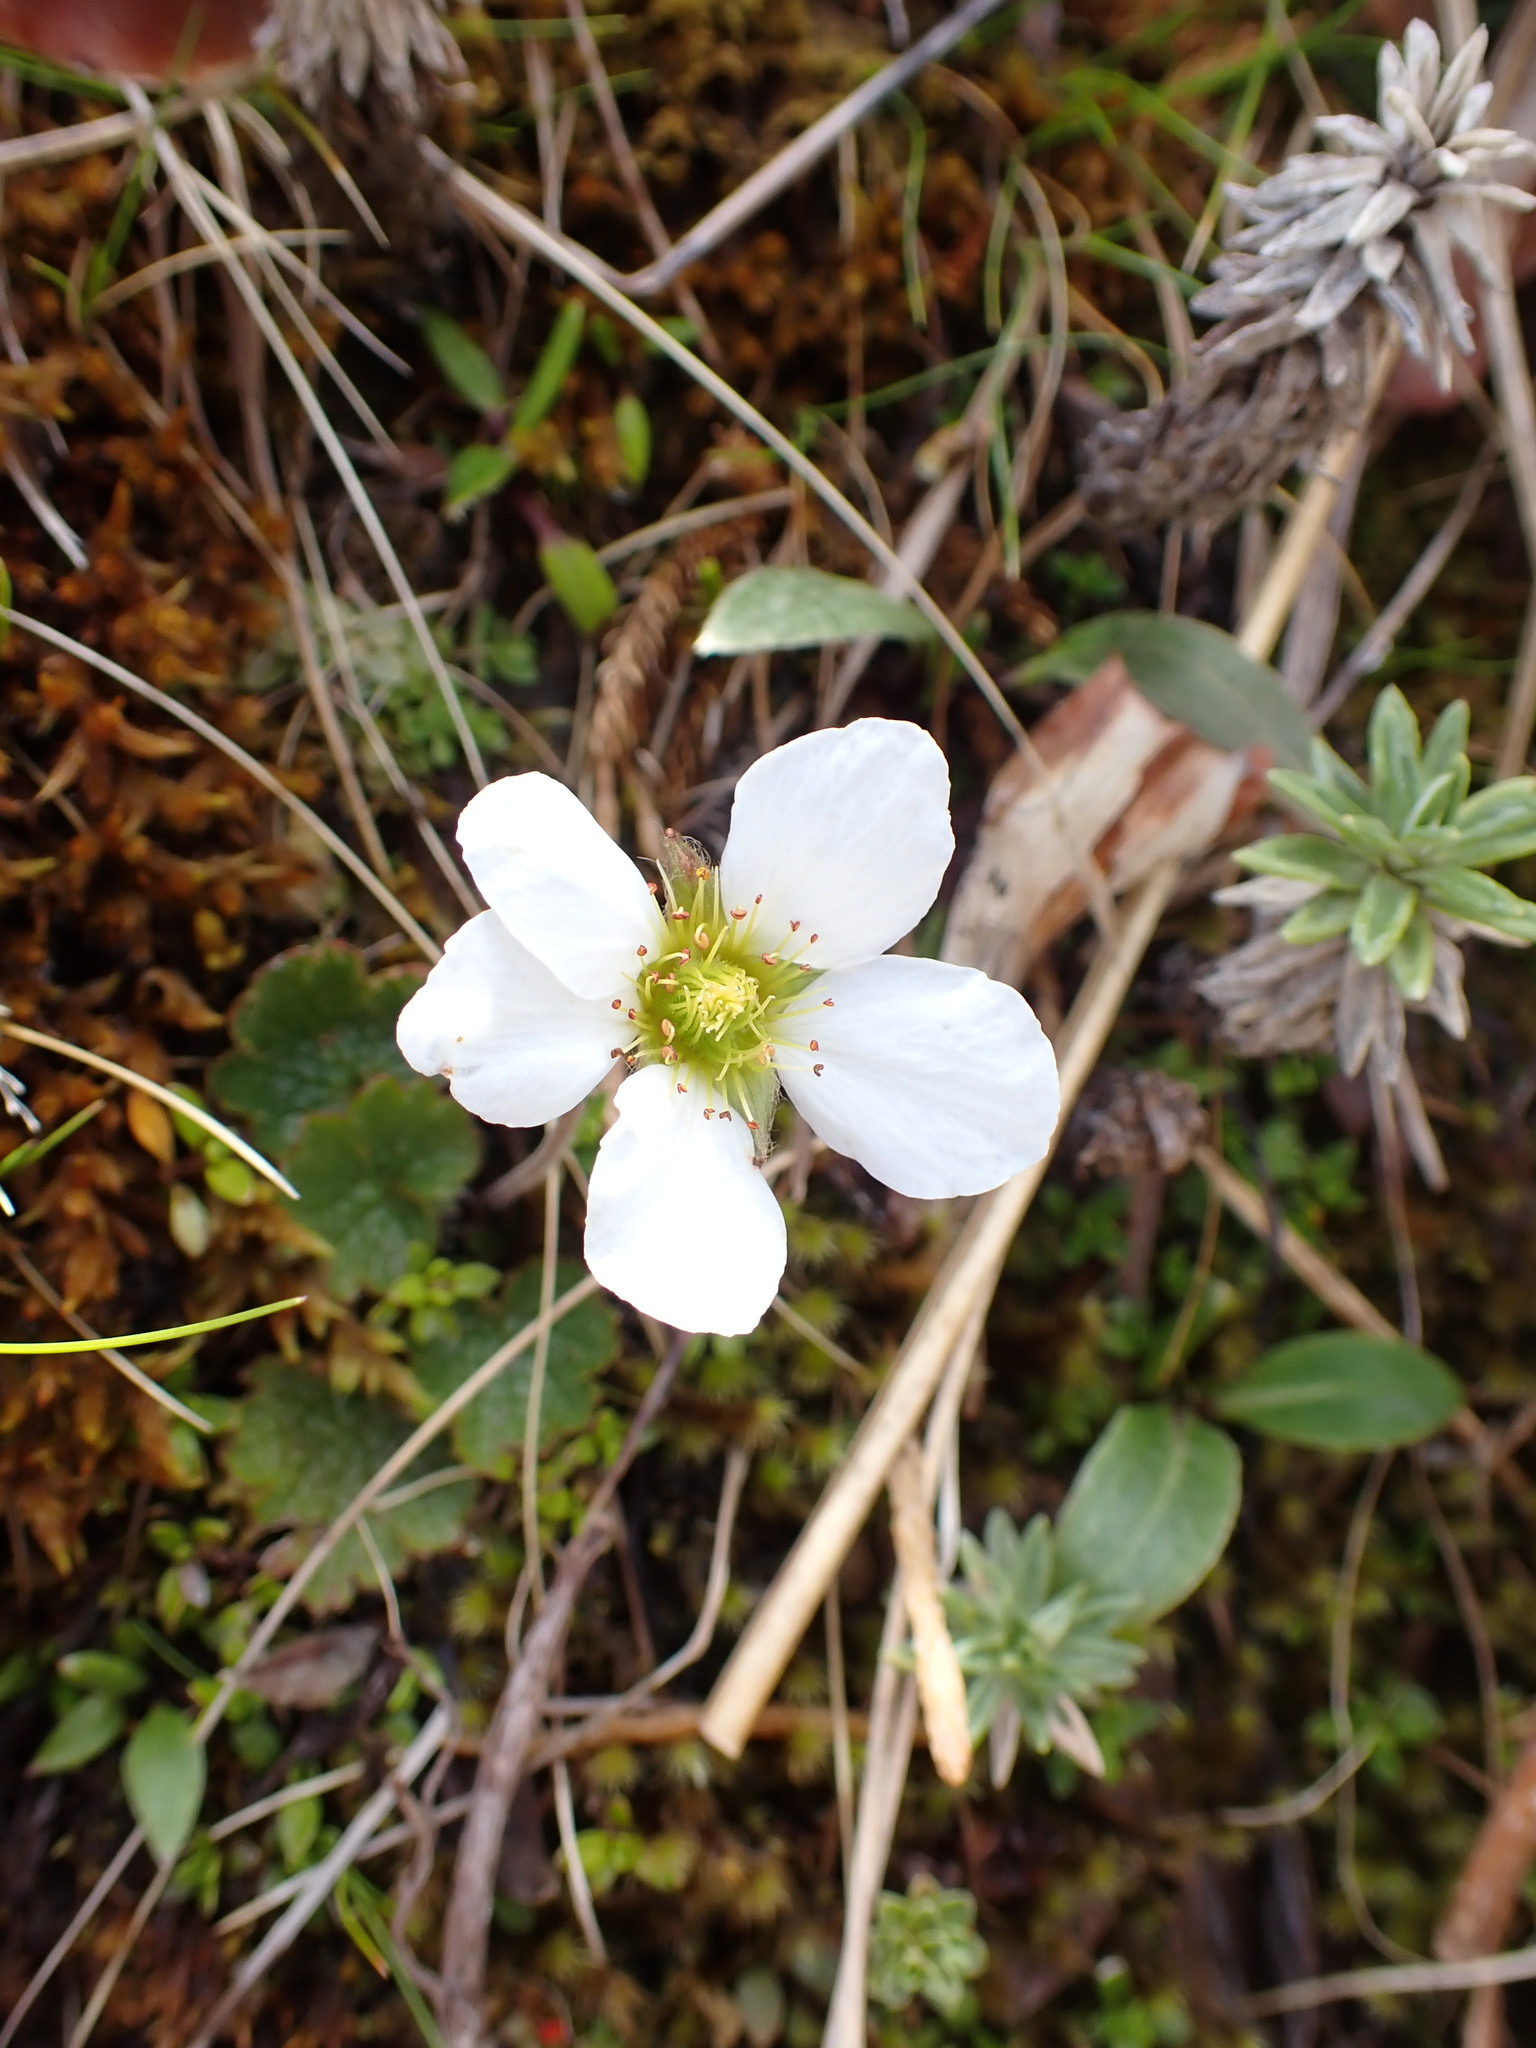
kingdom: Plantae
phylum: Tracheophyta
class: Magnoliopsida
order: Rosales
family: Rosaceae
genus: Geum
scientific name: Geum uniflorum
